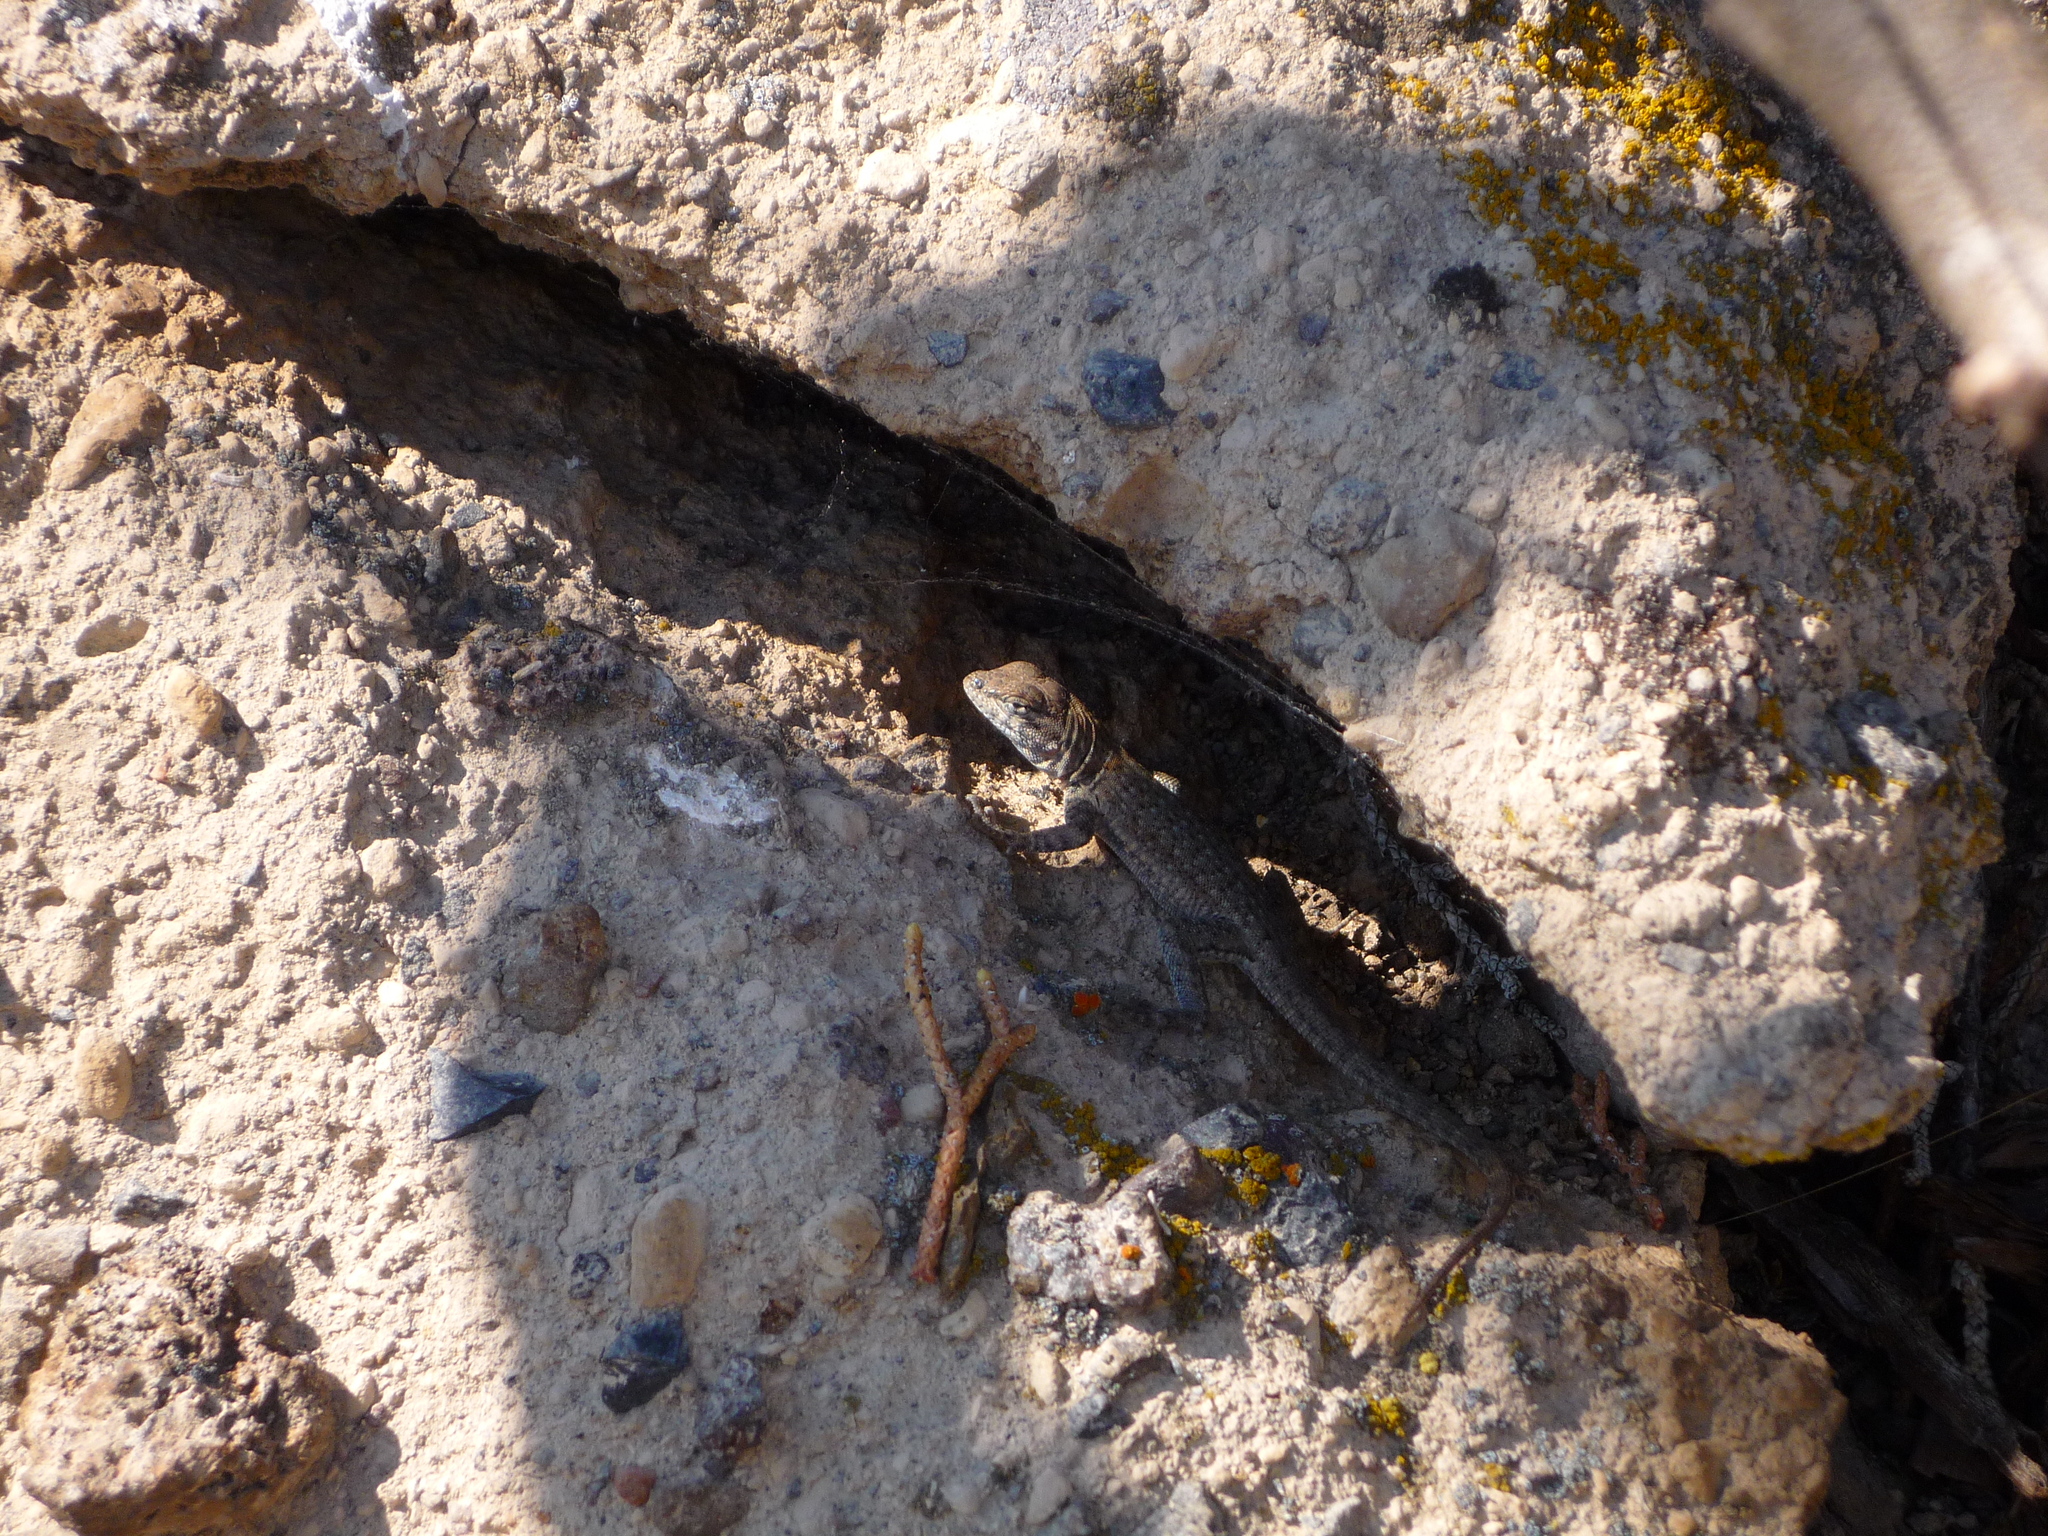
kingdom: Animalia
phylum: Chordata
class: Squamata
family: Phrynosomatidae
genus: Uta
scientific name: Uta stansburiana
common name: Side-blotched lizard
